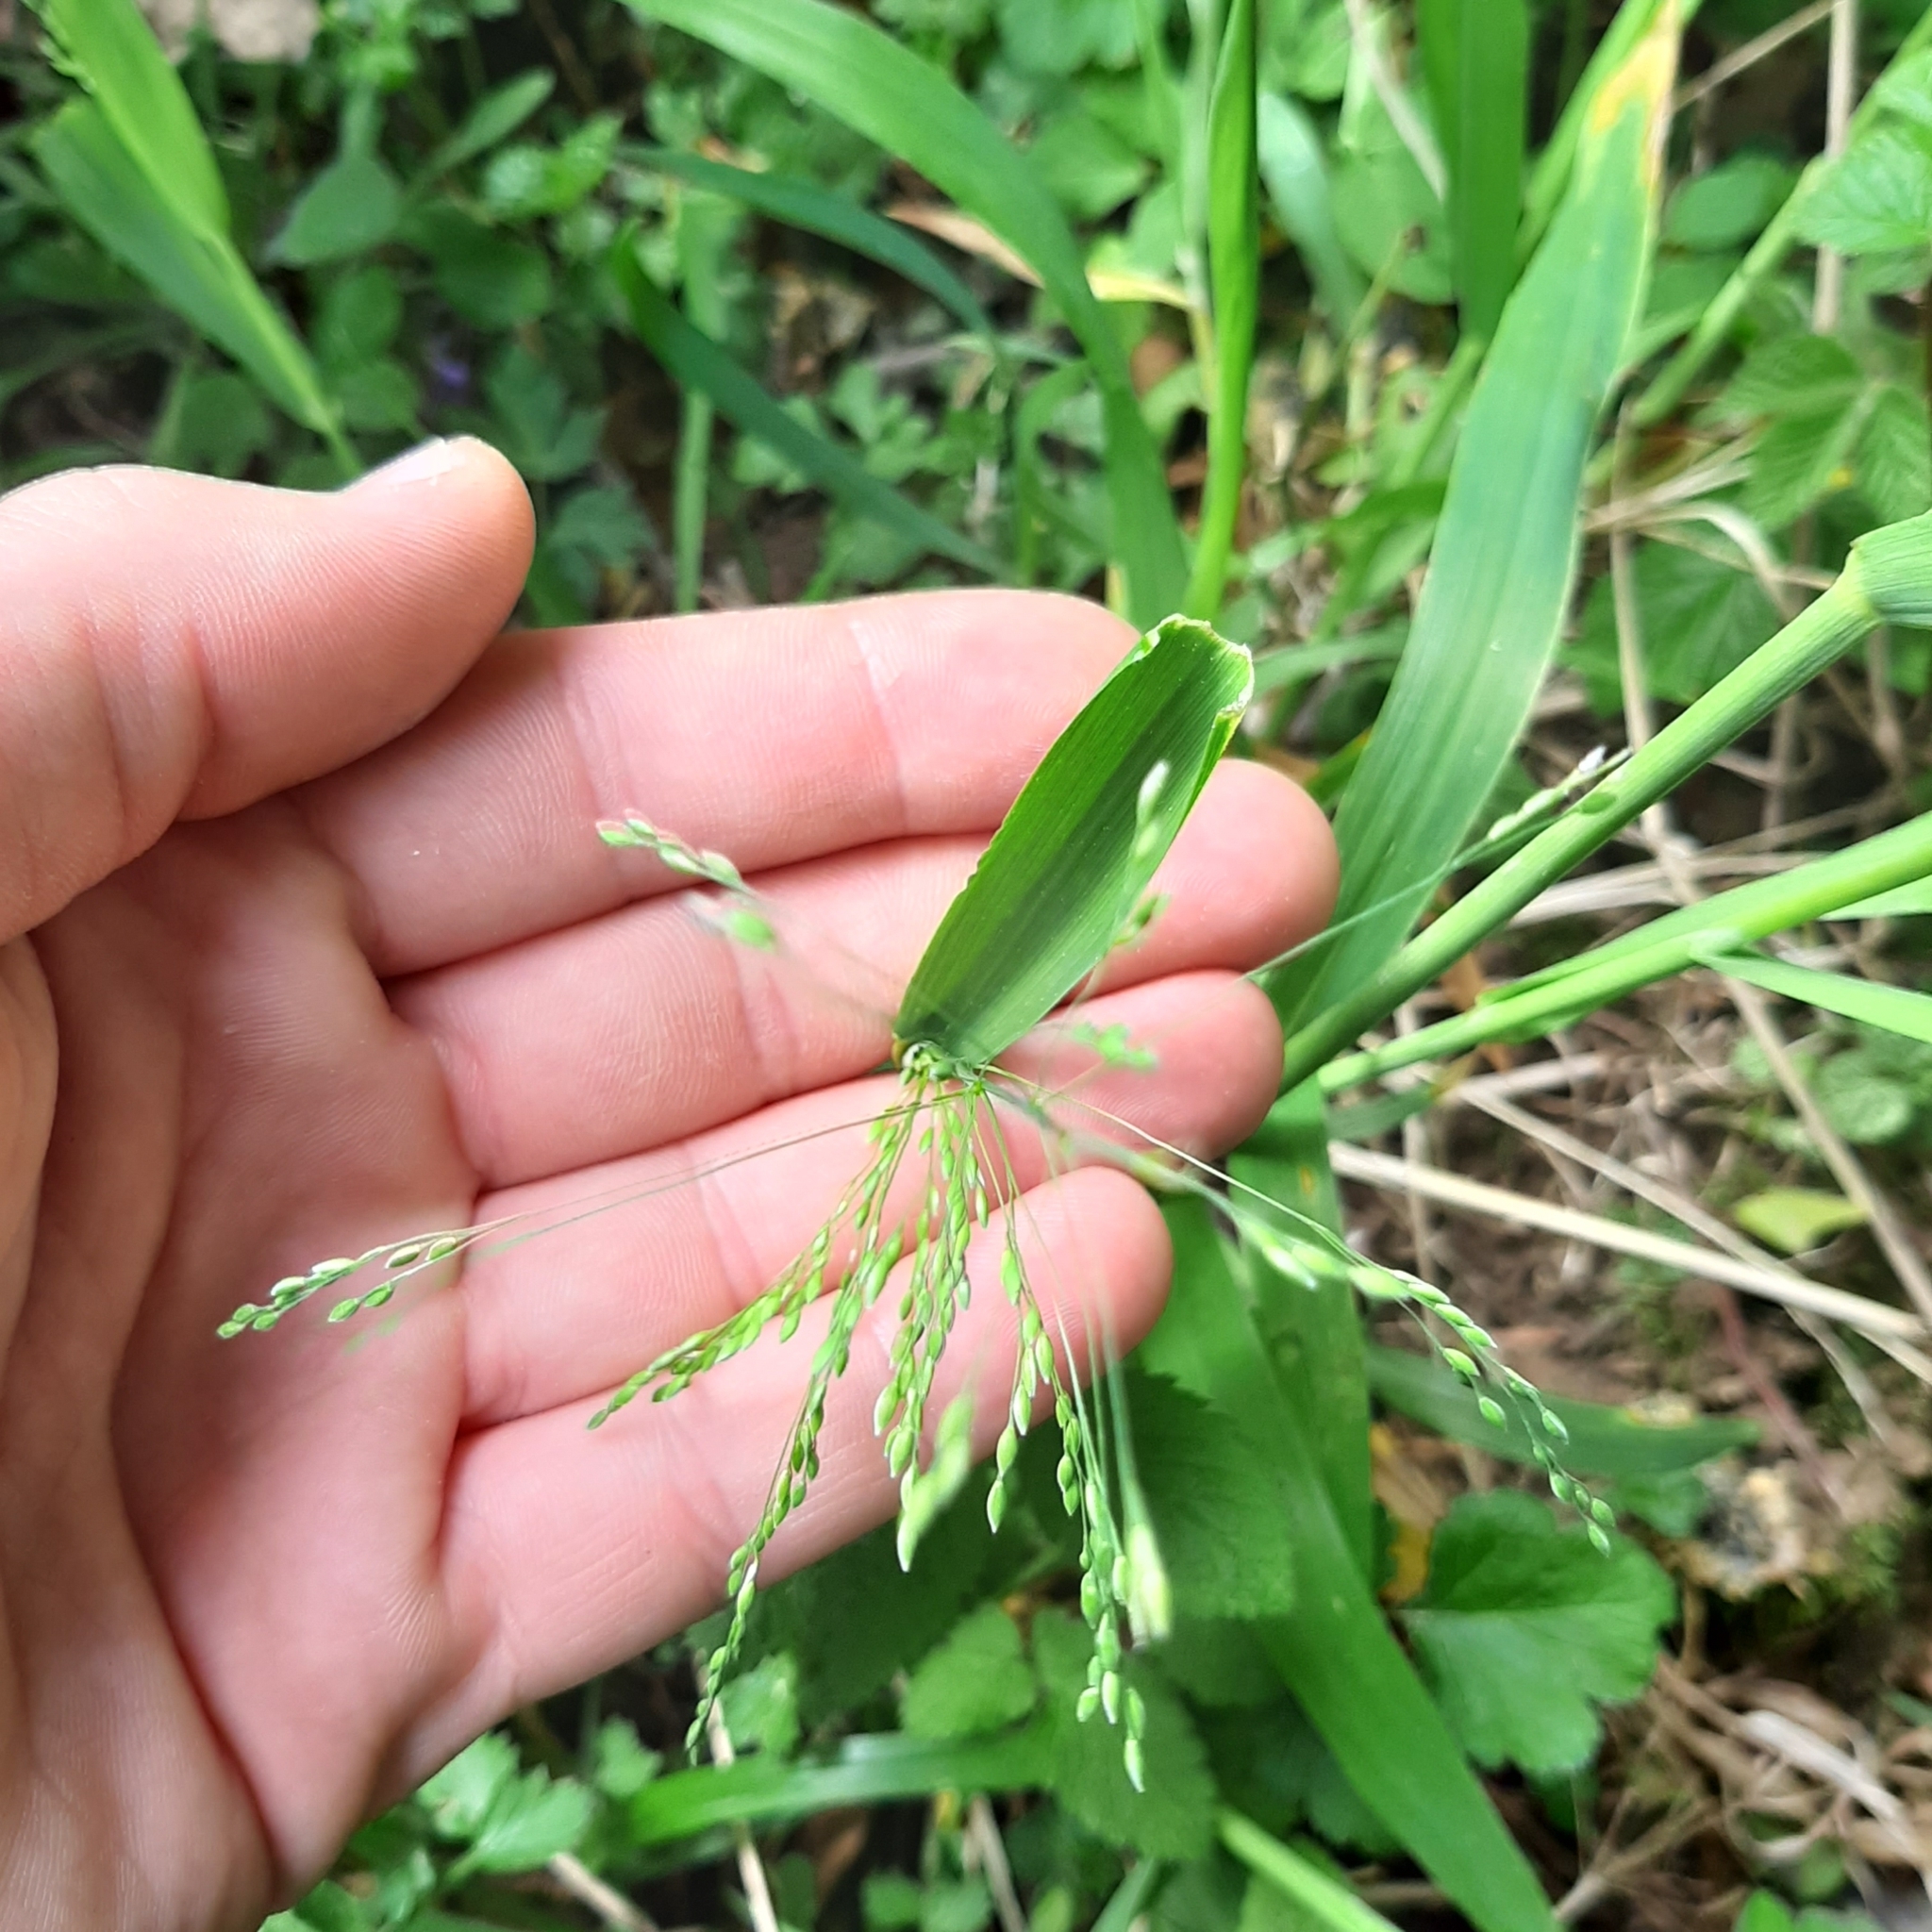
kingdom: Plantae
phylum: Tracheophyta
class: Liliopsida
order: Poales
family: Poaceae
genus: Milium
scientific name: Milium effusum
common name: Wood millet
